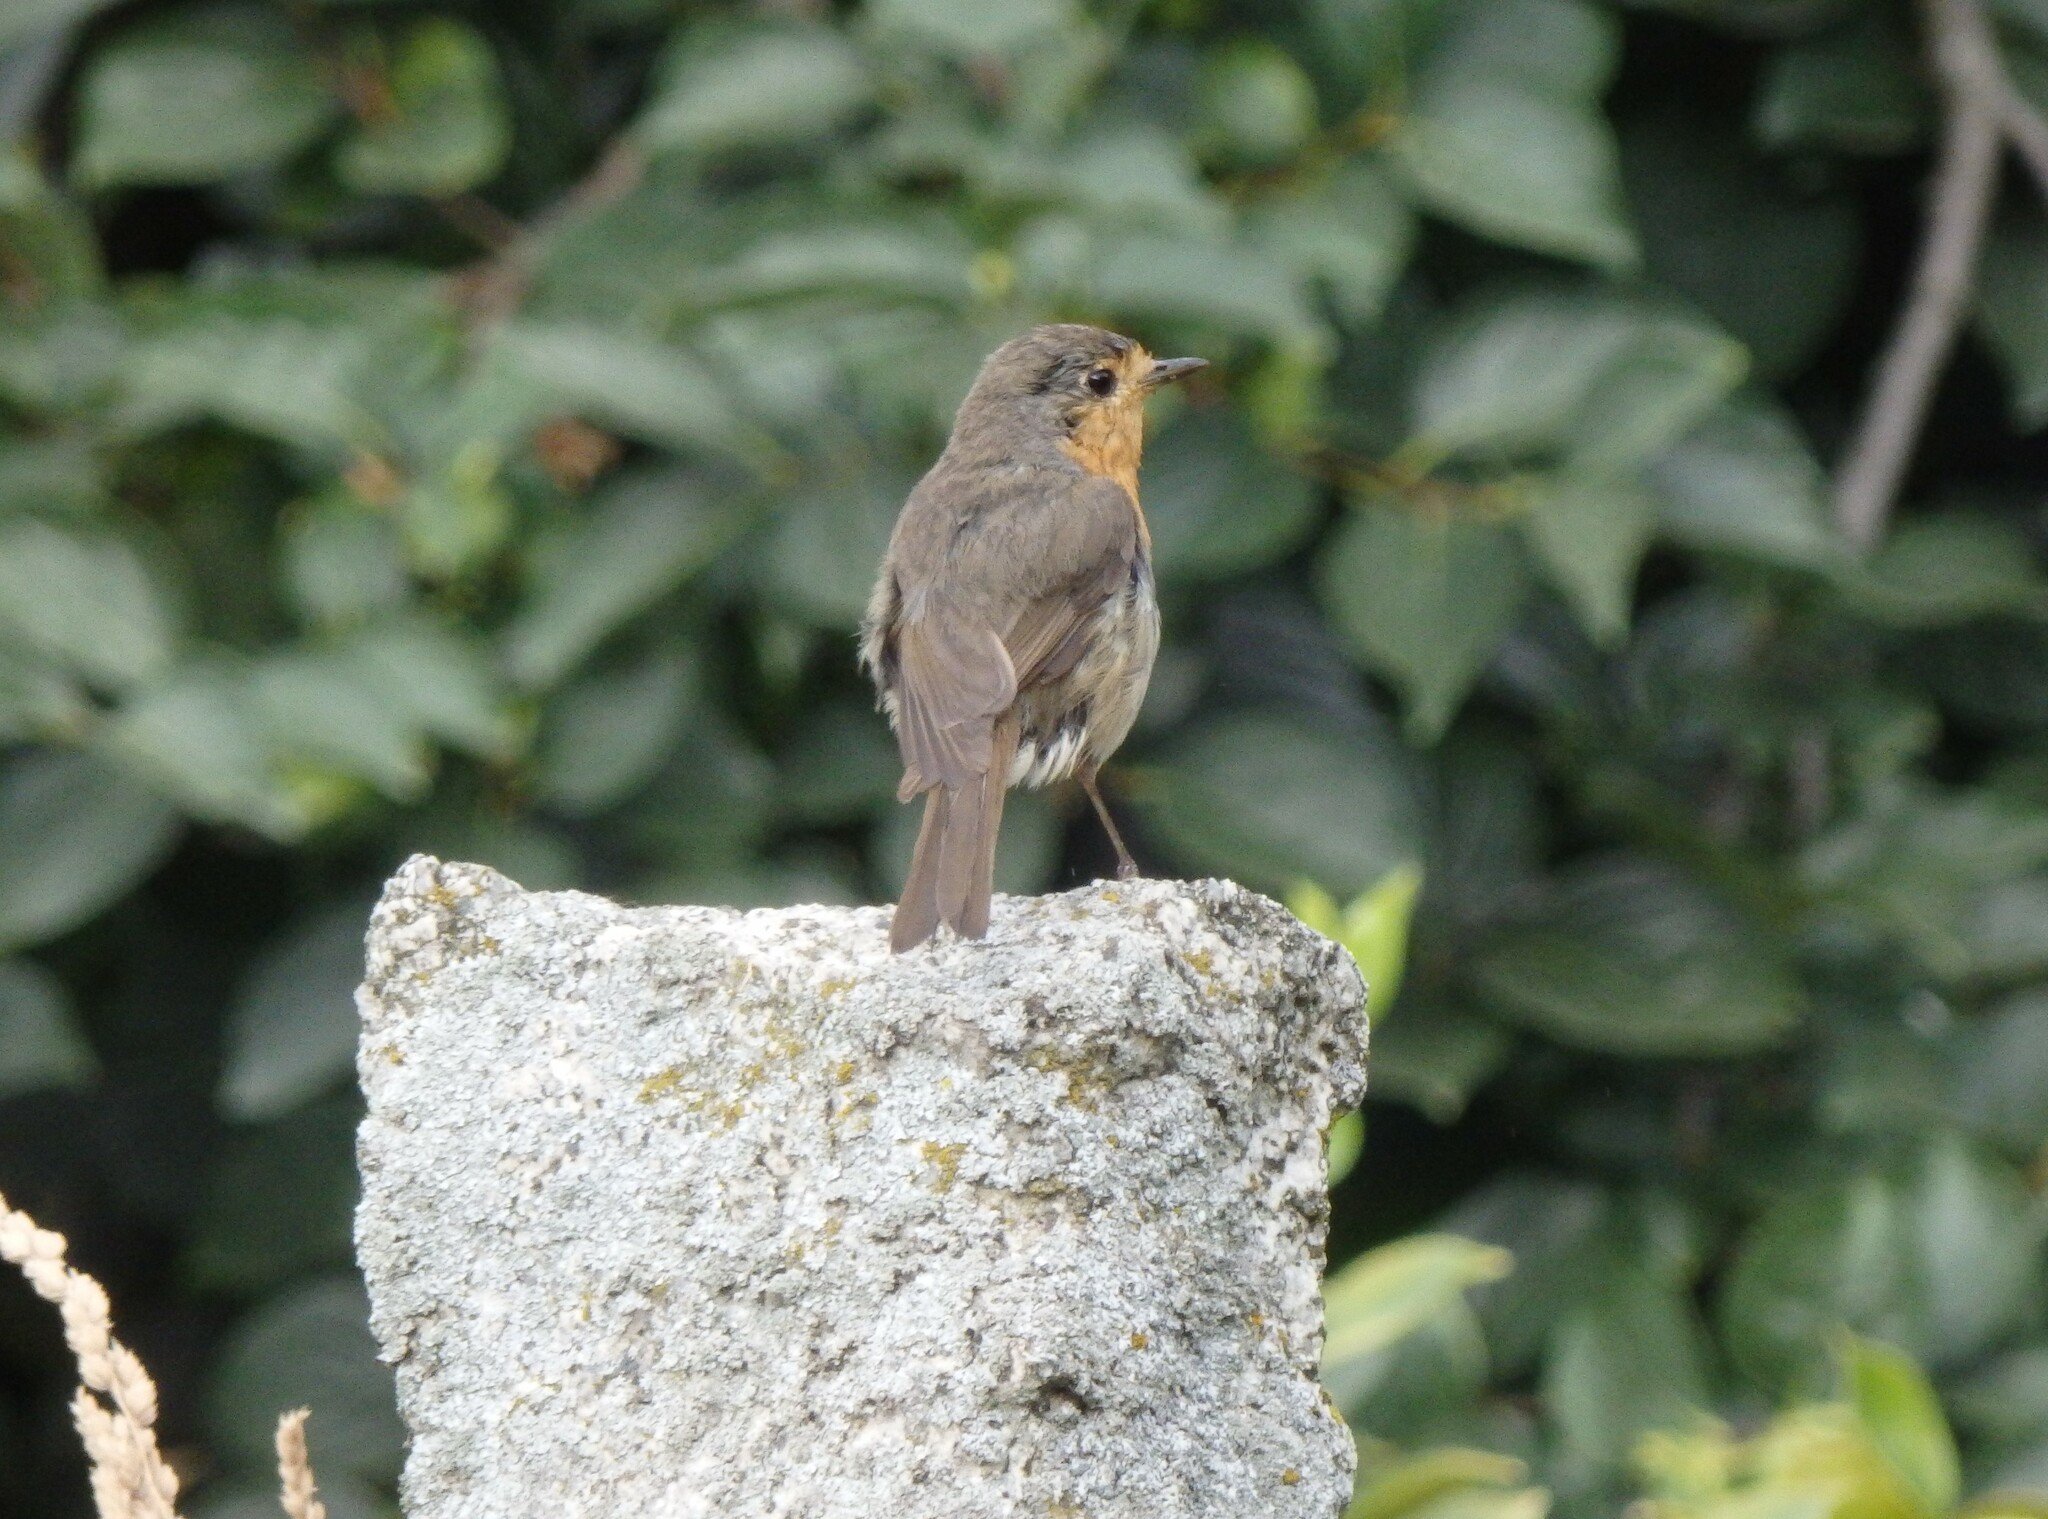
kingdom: Animalia
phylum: Chordata
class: Aves
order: Passeriformes
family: Muscicapidae
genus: Erithacus
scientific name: Erithacus rubecula
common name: European robin
